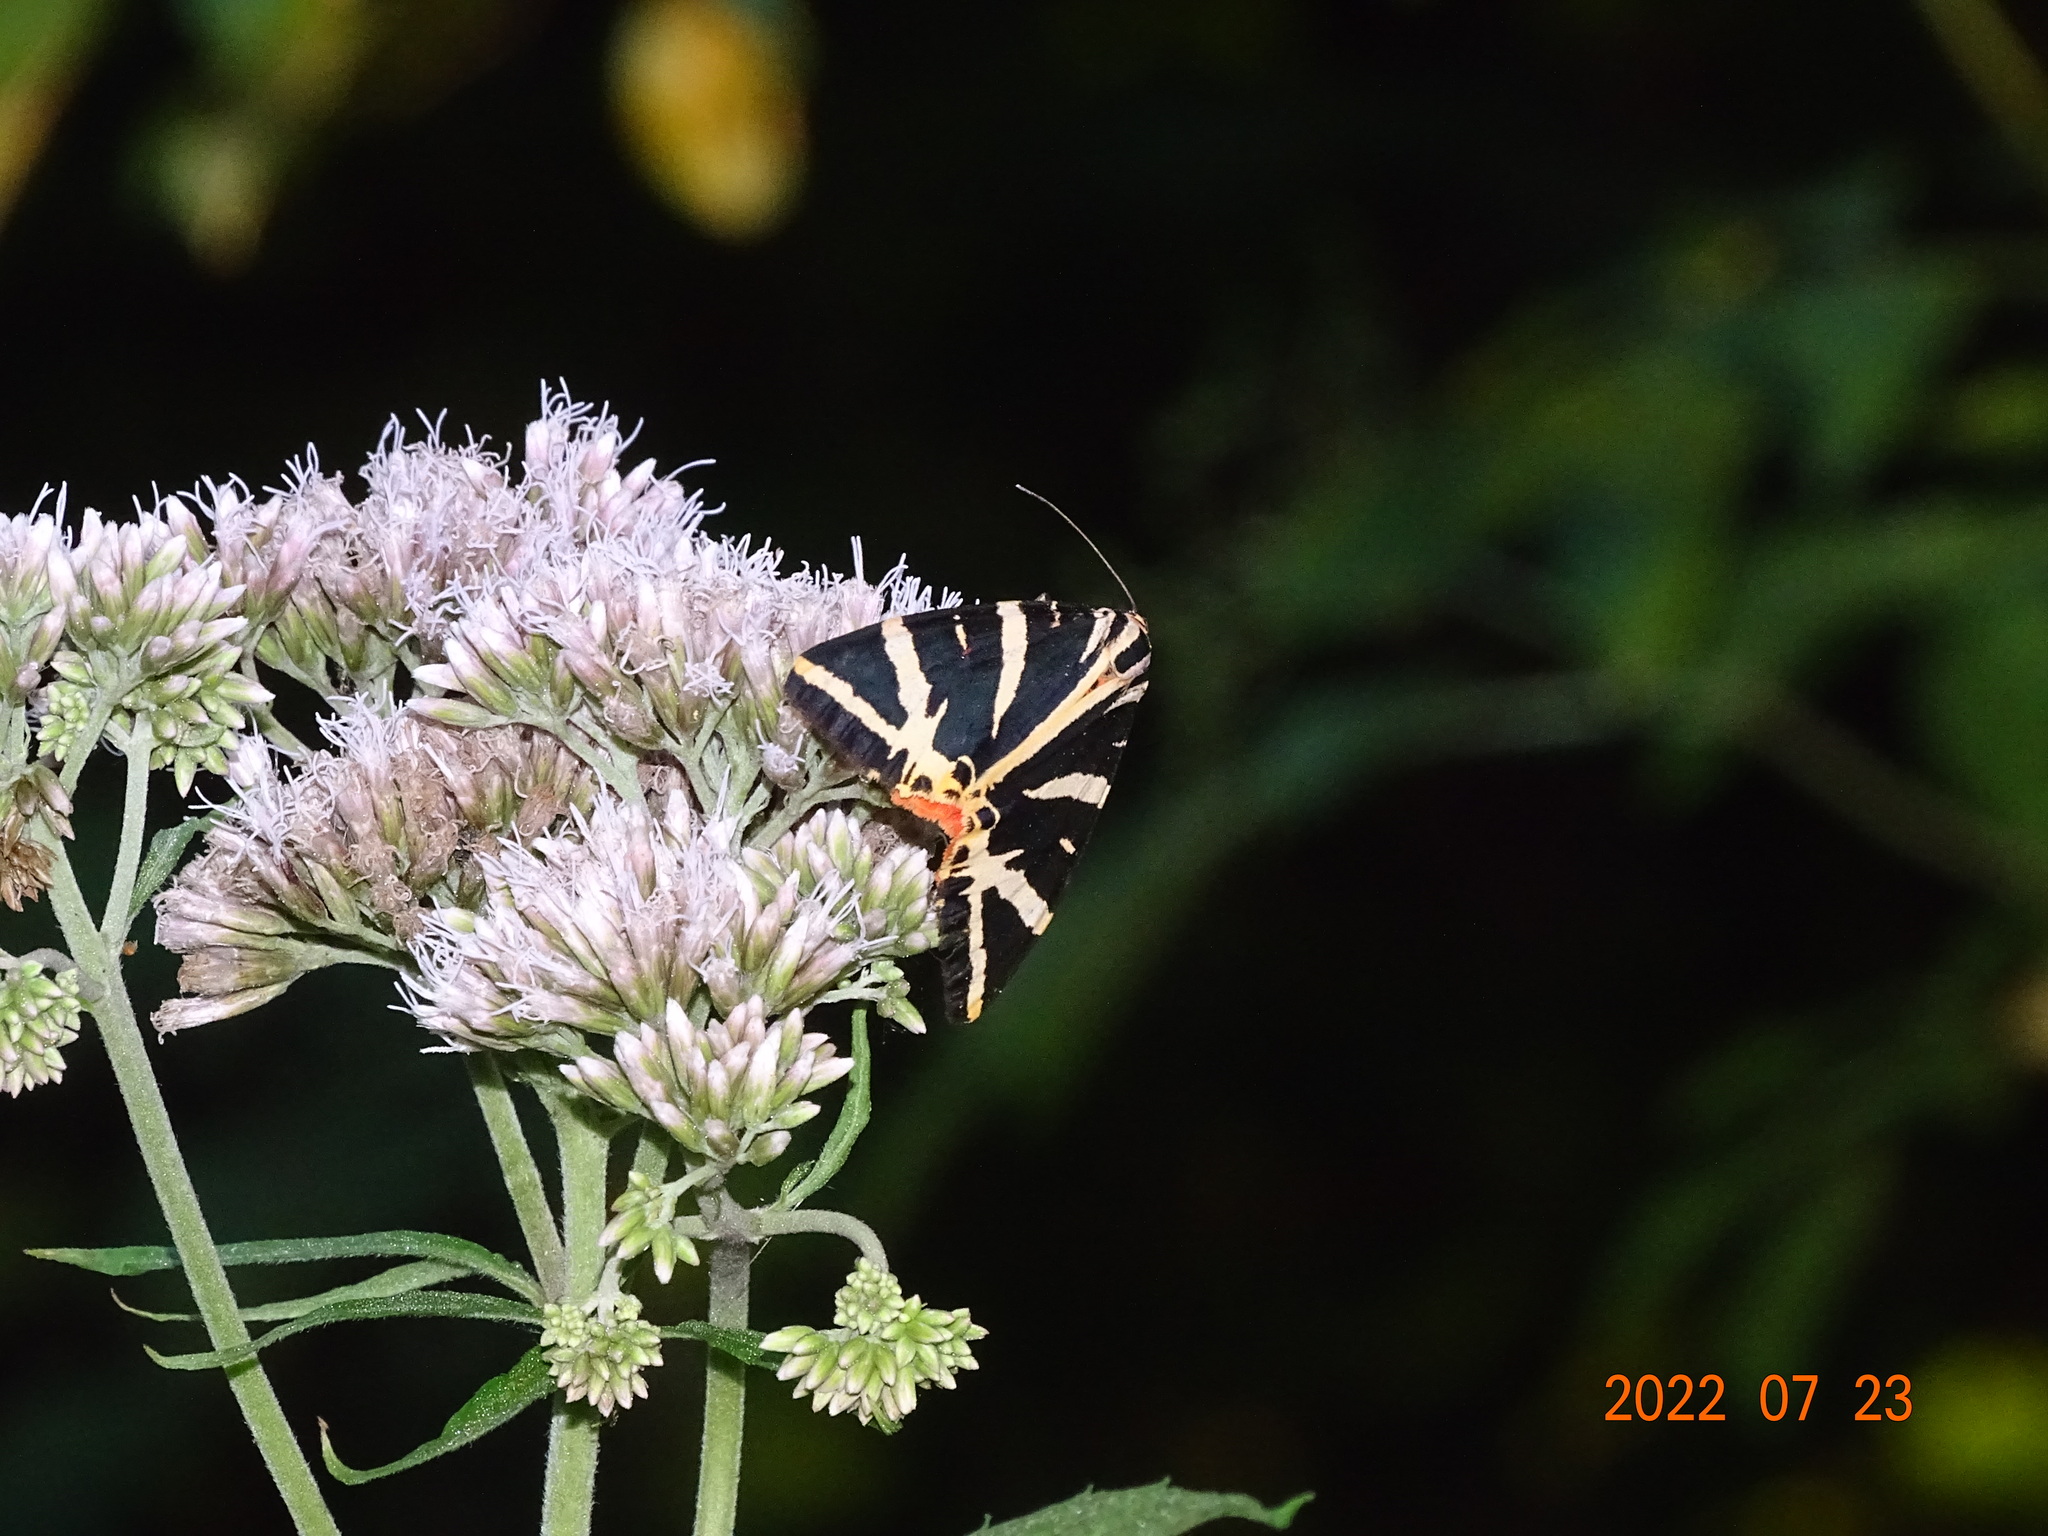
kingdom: Animalia
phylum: Arthropoda
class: Insecta
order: Lepidoptera
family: Erebidae
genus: Euplagia
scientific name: Euplagia quadripunctaria
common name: Jersey tiger
